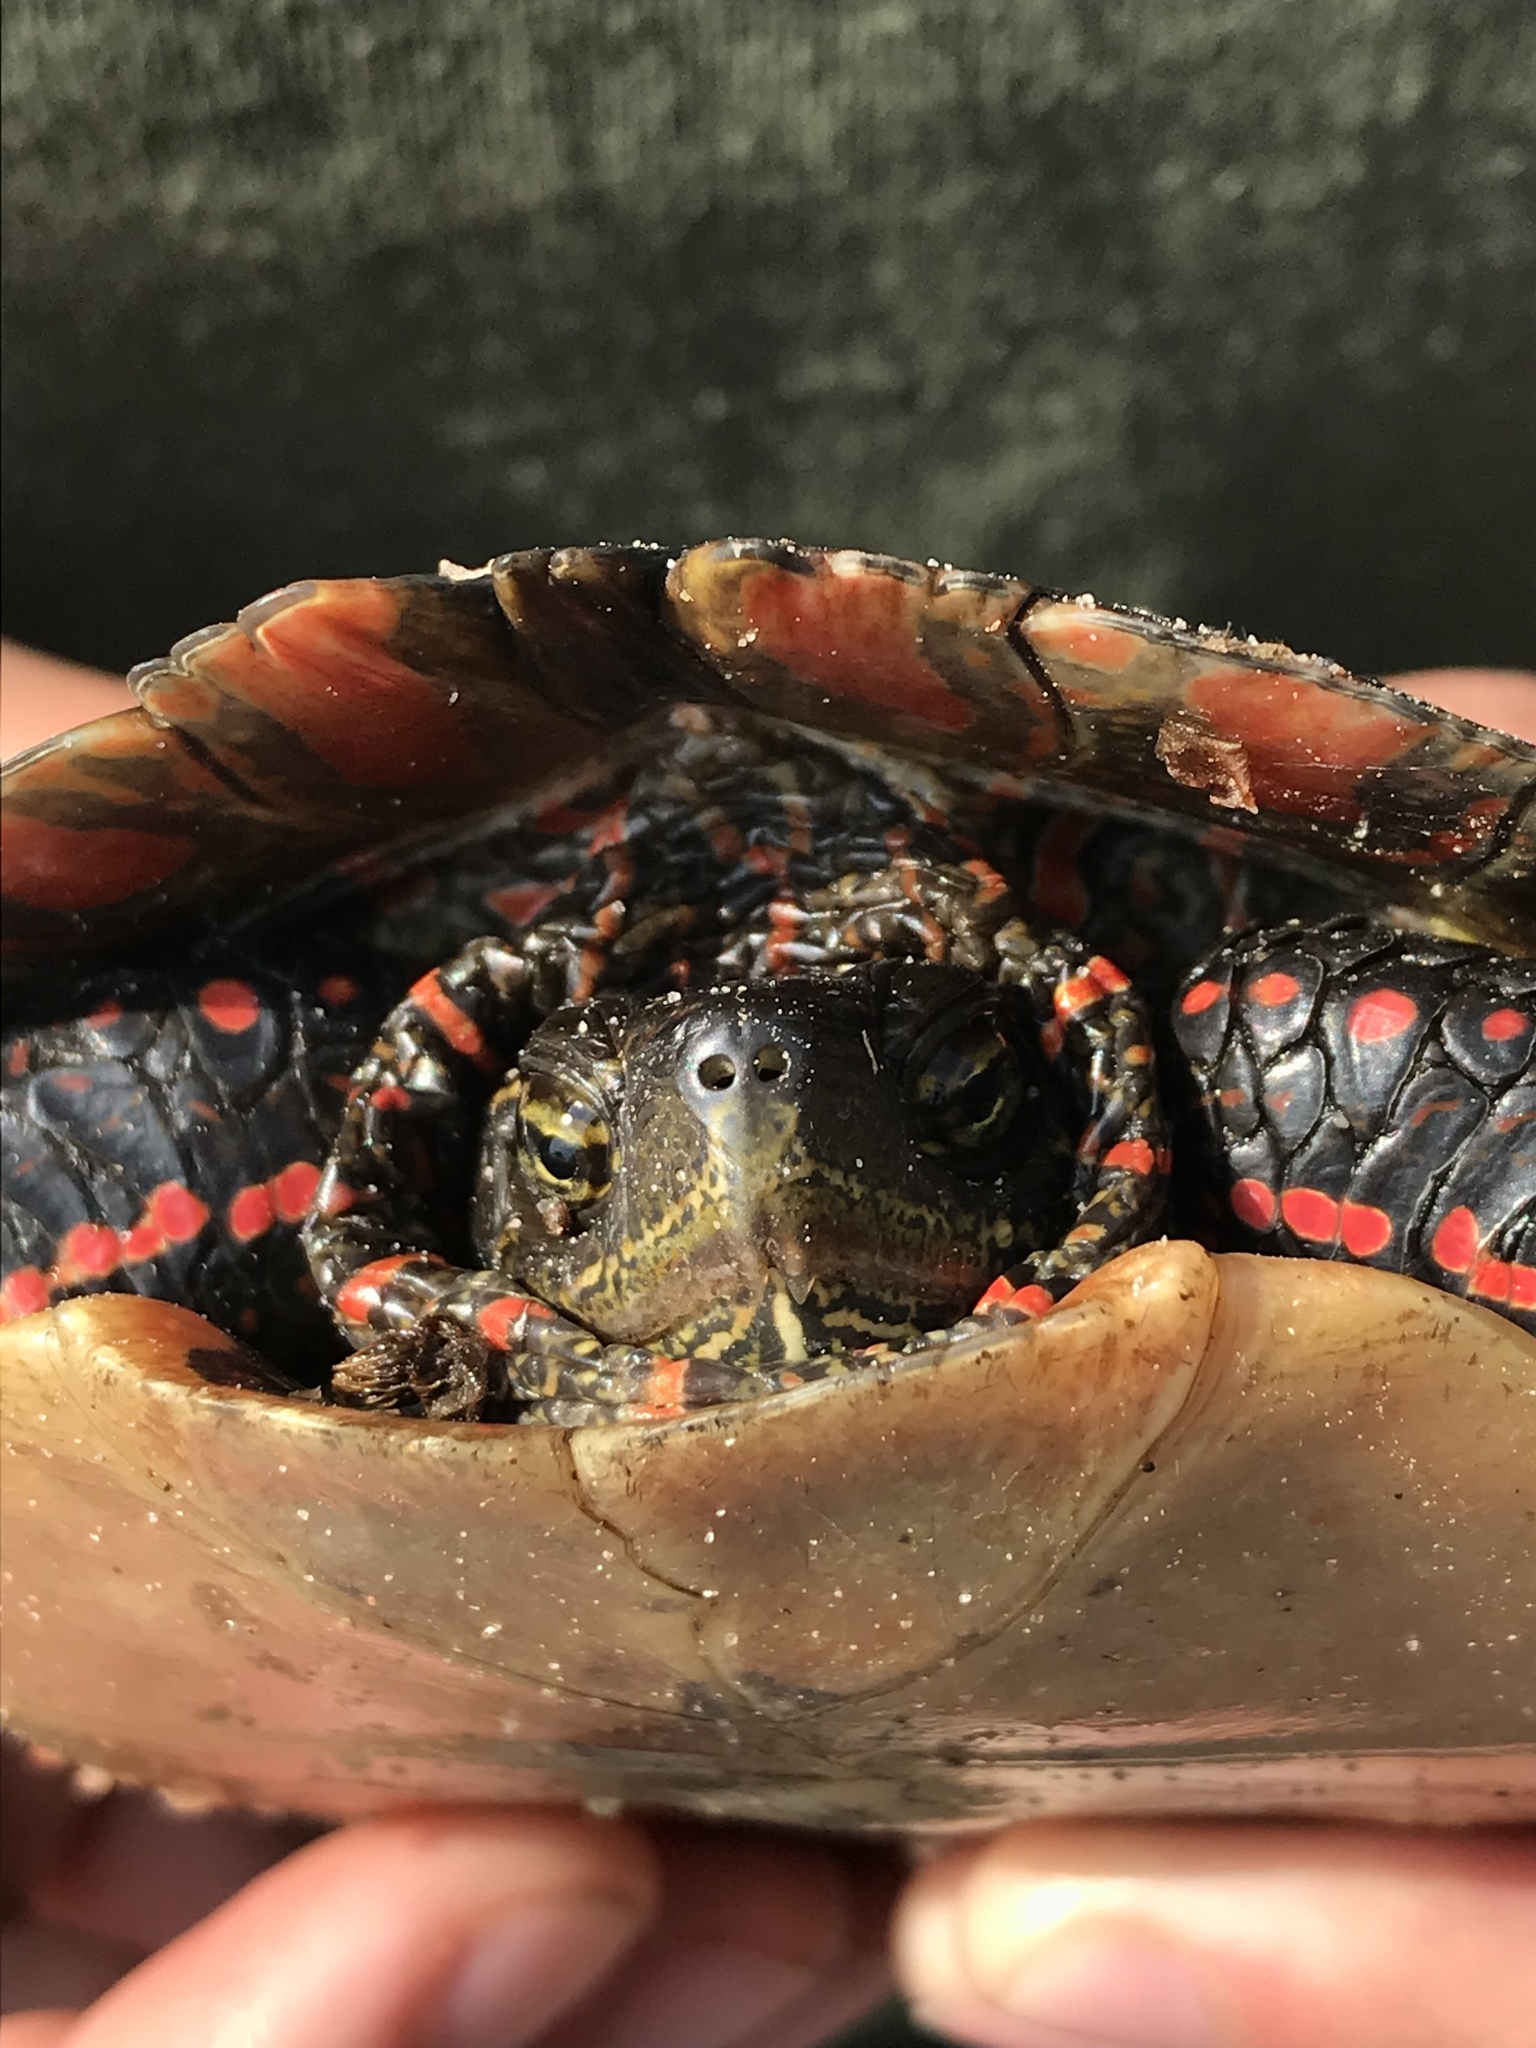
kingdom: Animalia
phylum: Chordata
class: Testudines
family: Emydidae
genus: Chrysemys
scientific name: Chrysemys picta
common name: Painted turtle
